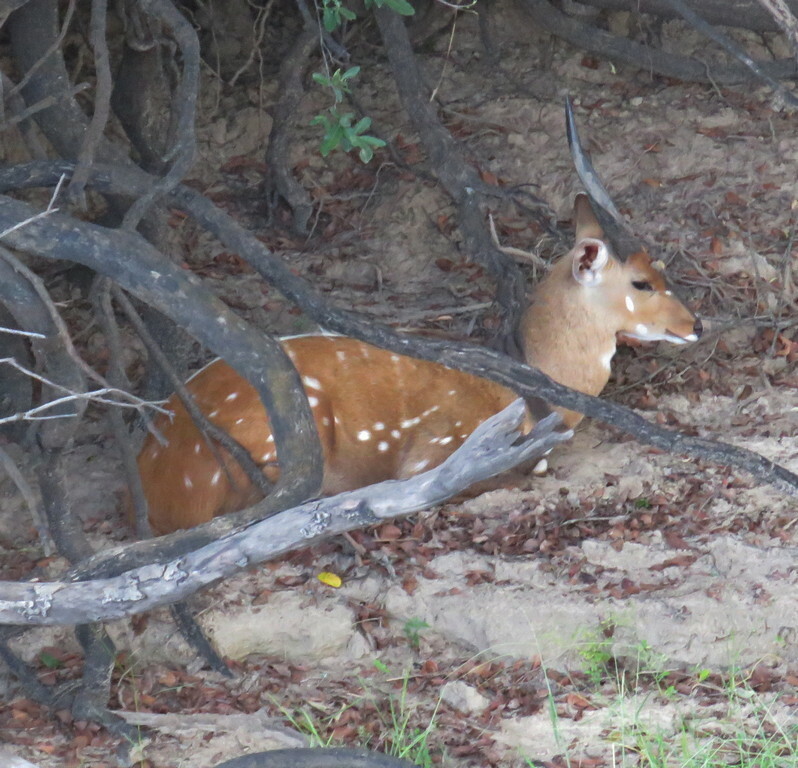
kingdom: Animalia
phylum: Chordata
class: Mammalia
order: Artiodactyla
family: Bovidae
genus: Tragelaphus
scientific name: Tragelaphus scriptus
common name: Bushbuck
